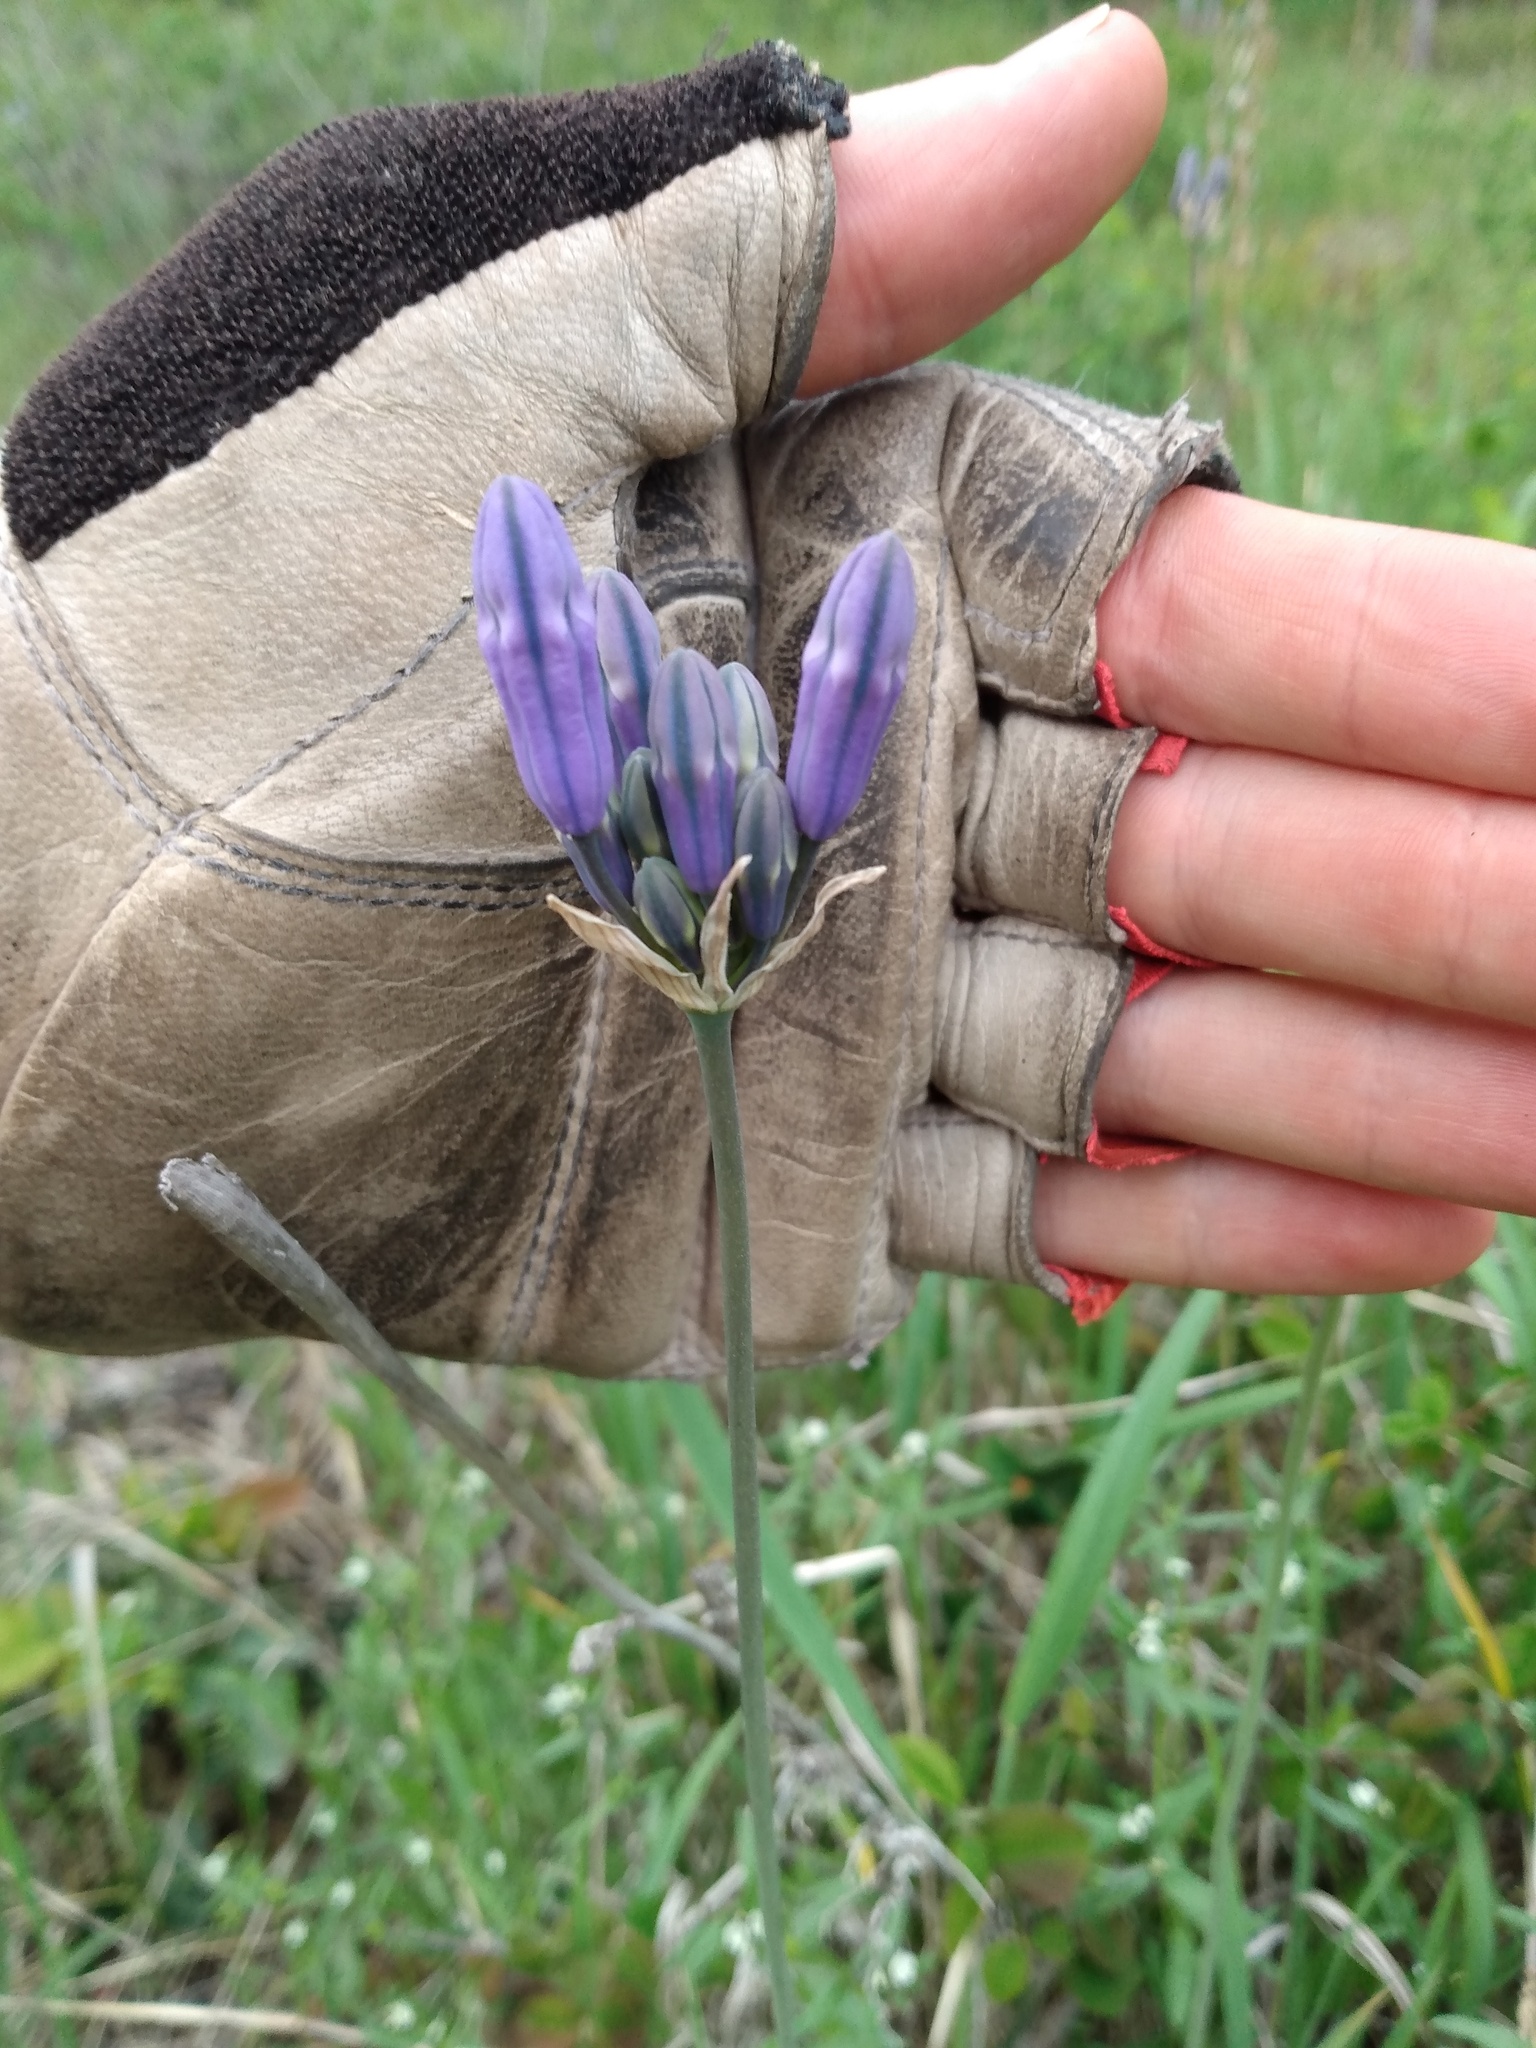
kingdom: Plantae
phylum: Tracheophyta
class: Liliopsida
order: Asparagales
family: Asparagaceae
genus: Triteleia
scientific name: Triteleia grandiflora
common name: Wild hyacinth
